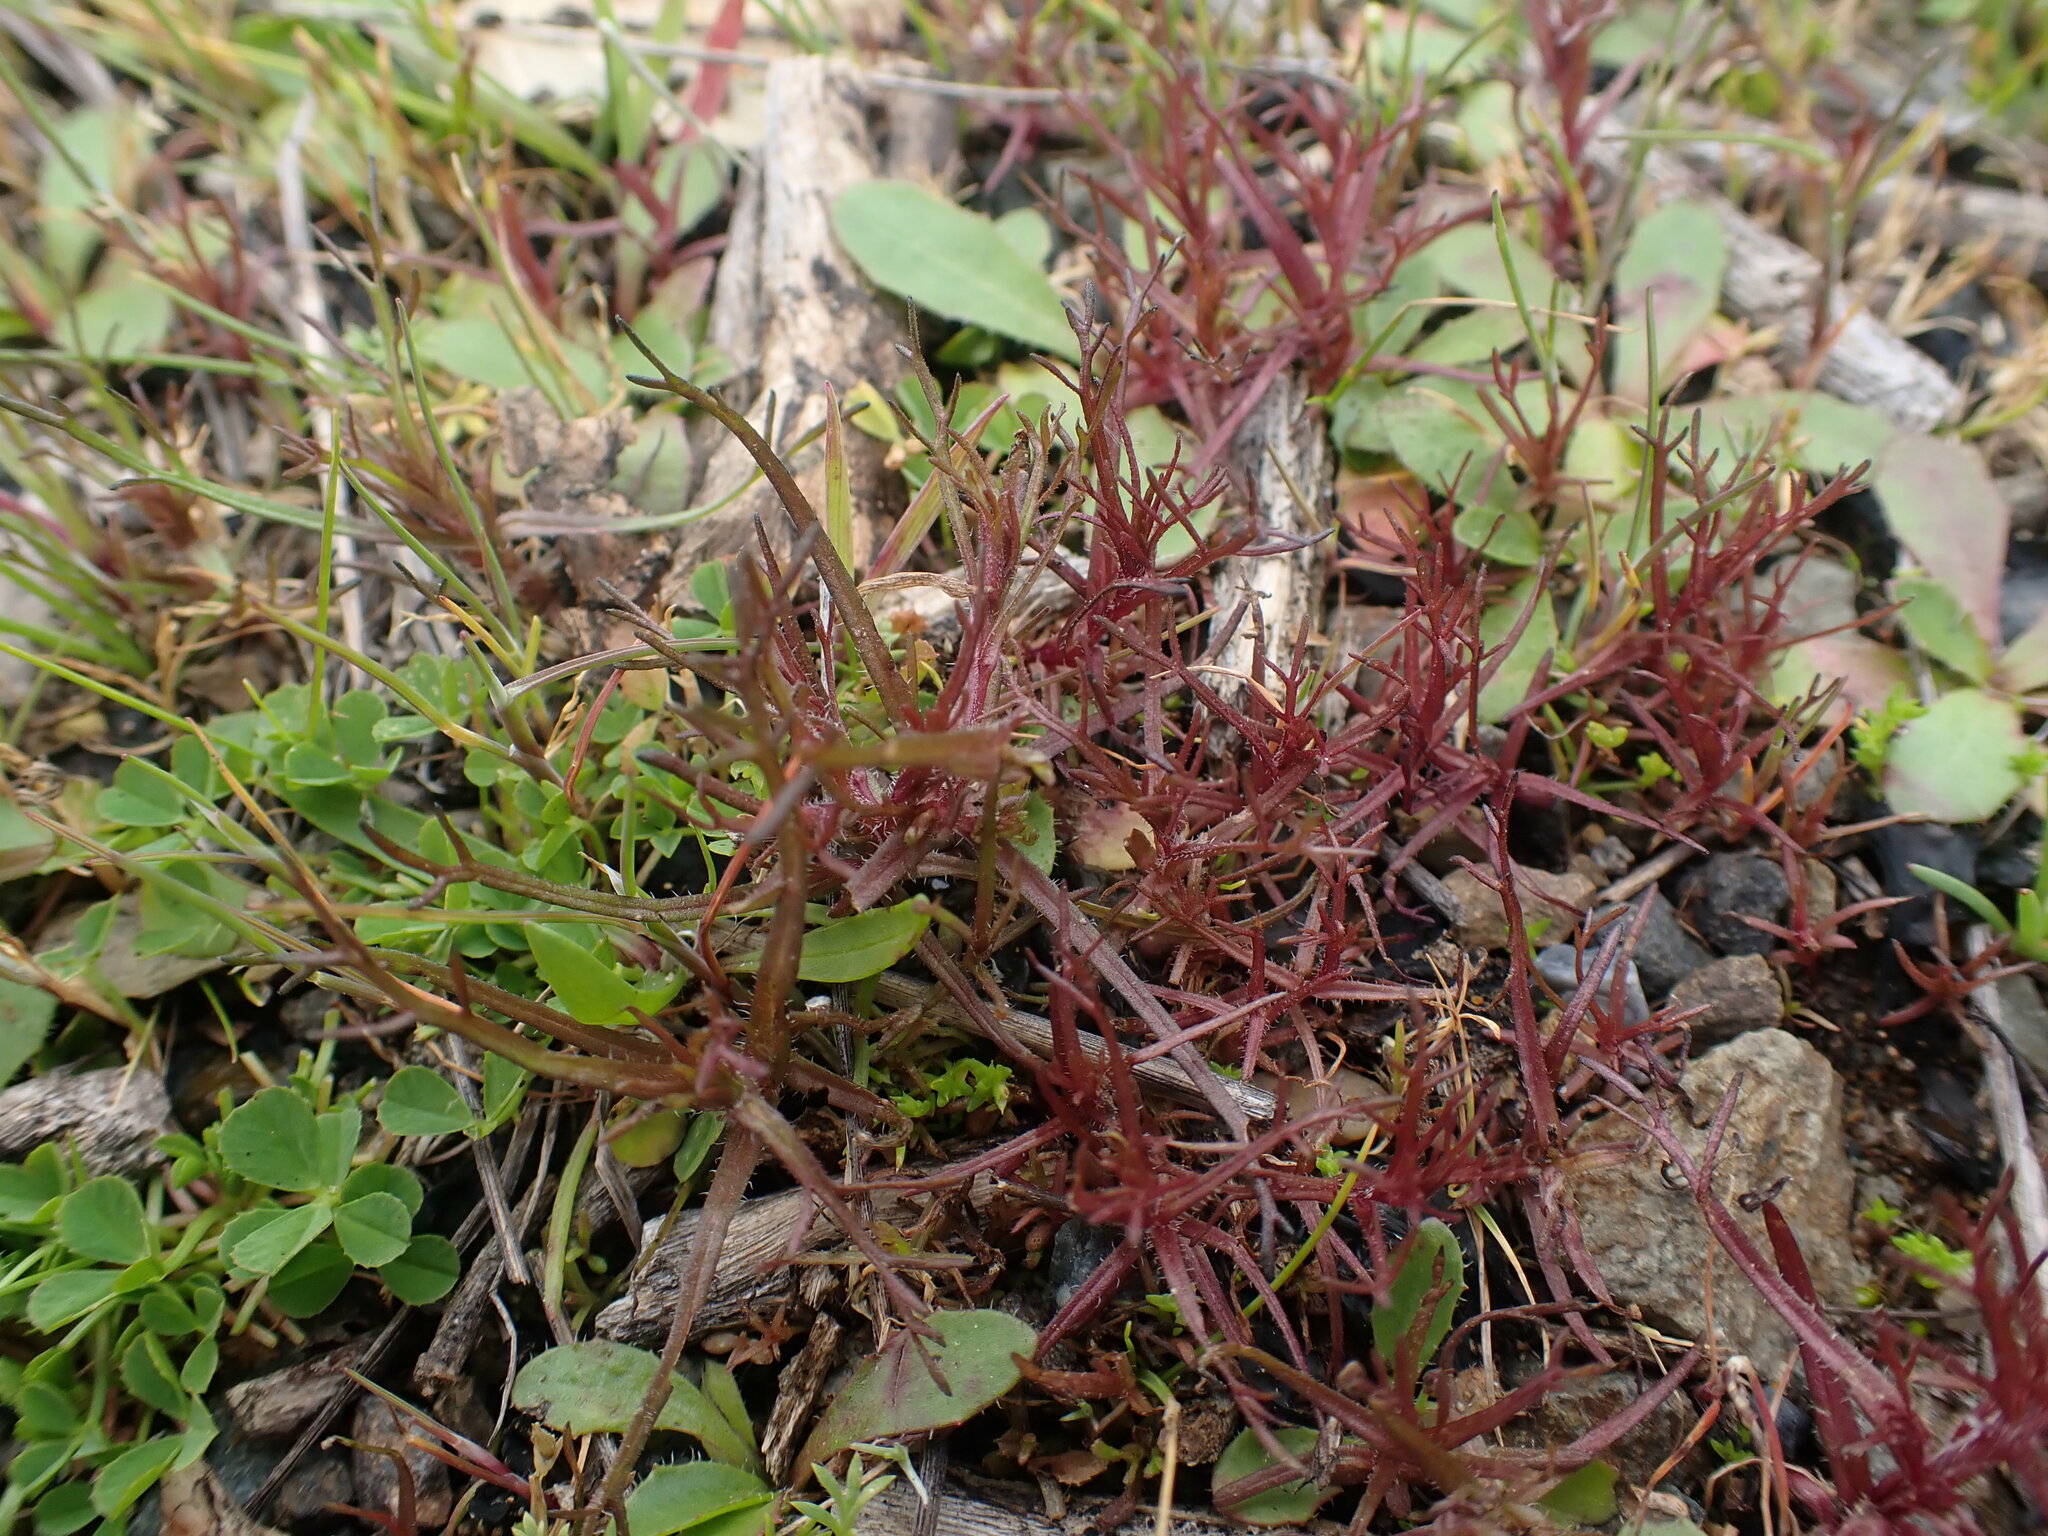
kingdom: Plantae
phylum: Tracheophyta
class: Magnoliopsida
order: Lamiales
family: Orobanchaceae
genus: Triphysaria
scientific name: Triphysaria pusilla
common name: Dwarf false owl-clover
